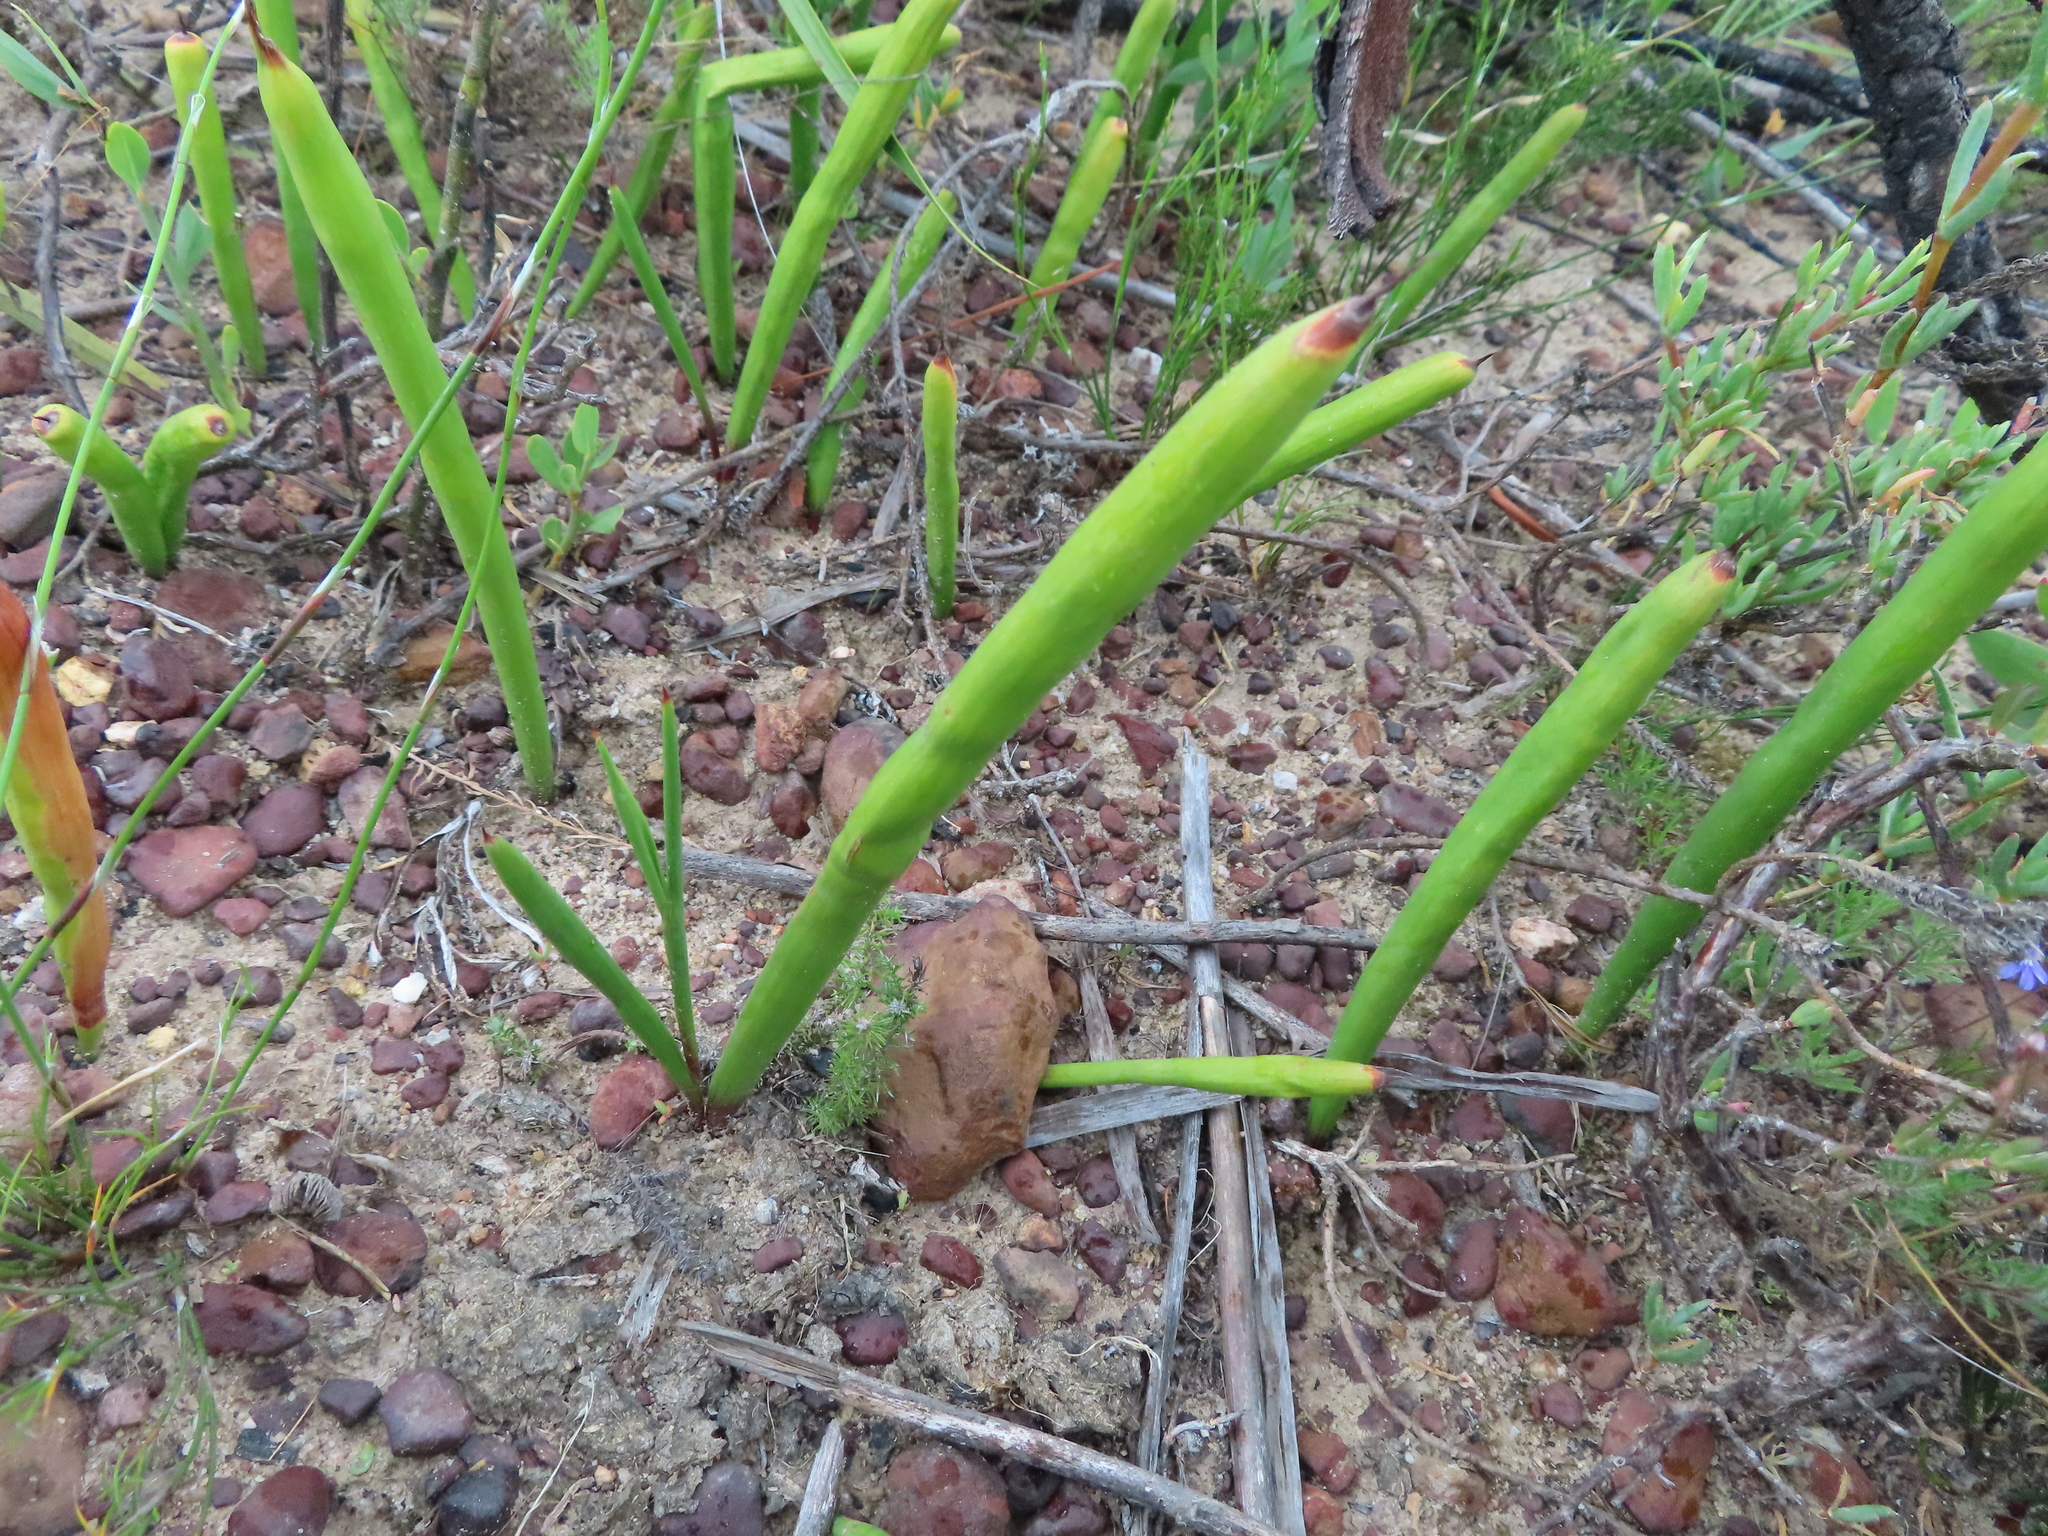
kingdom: Plantae
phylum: Tracheophyta
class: Liliopsida
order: Asparagales
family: Iridaceae
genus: Micranthus
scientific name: Micranthus tubulosus
